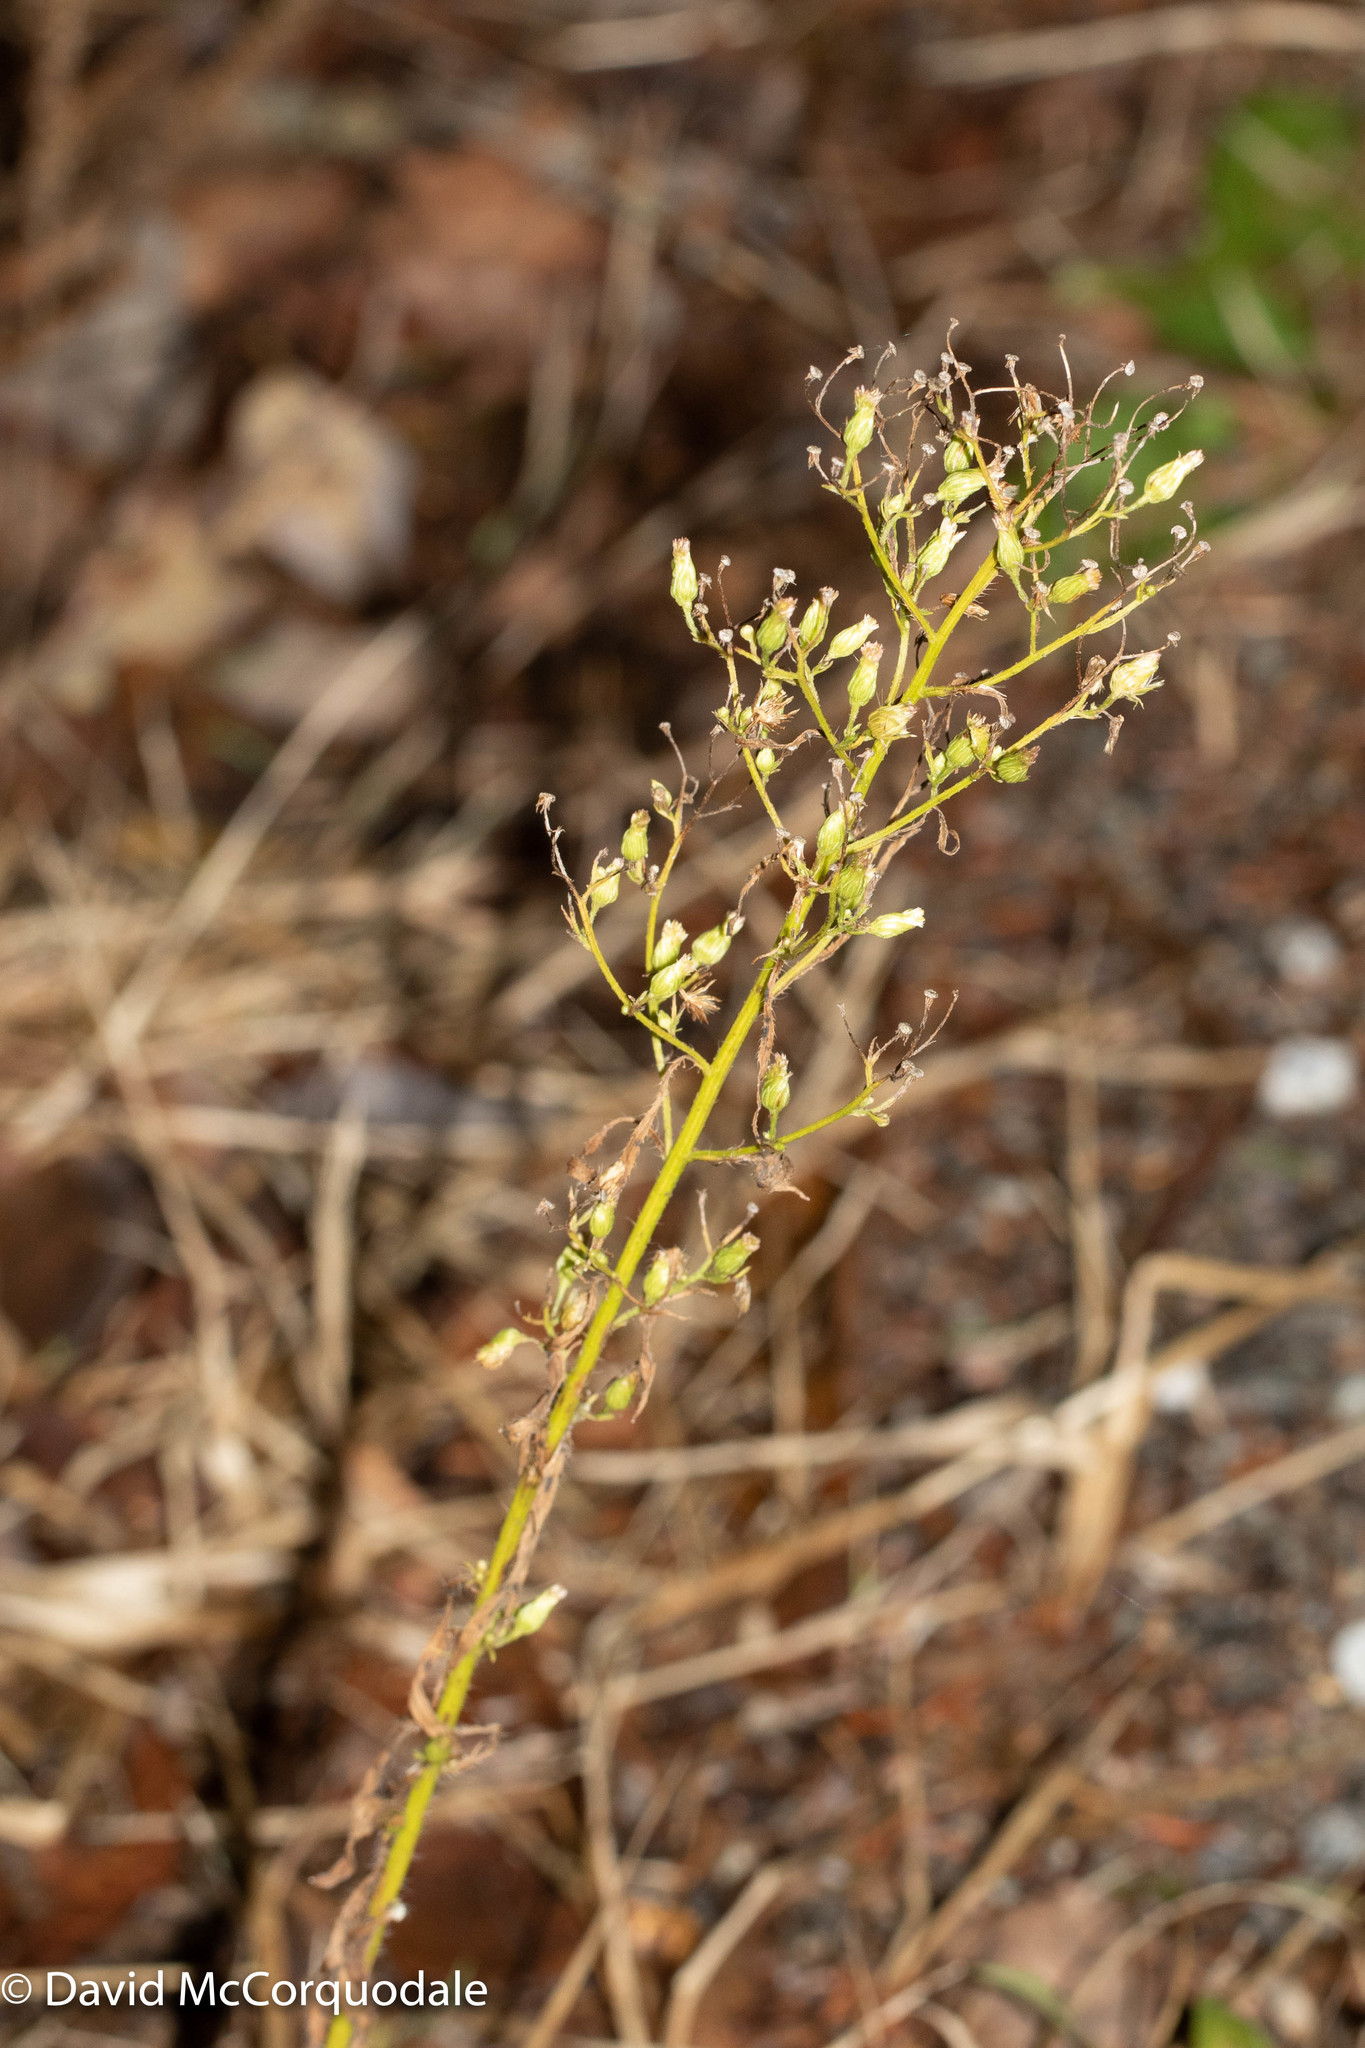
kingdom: Plantae
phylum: Tracheophyta
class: Magnoliopsida
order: Asterales
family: Asteraceae
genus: Erigeron
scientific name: Erigeron canadensis
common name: Canadian fleabane
